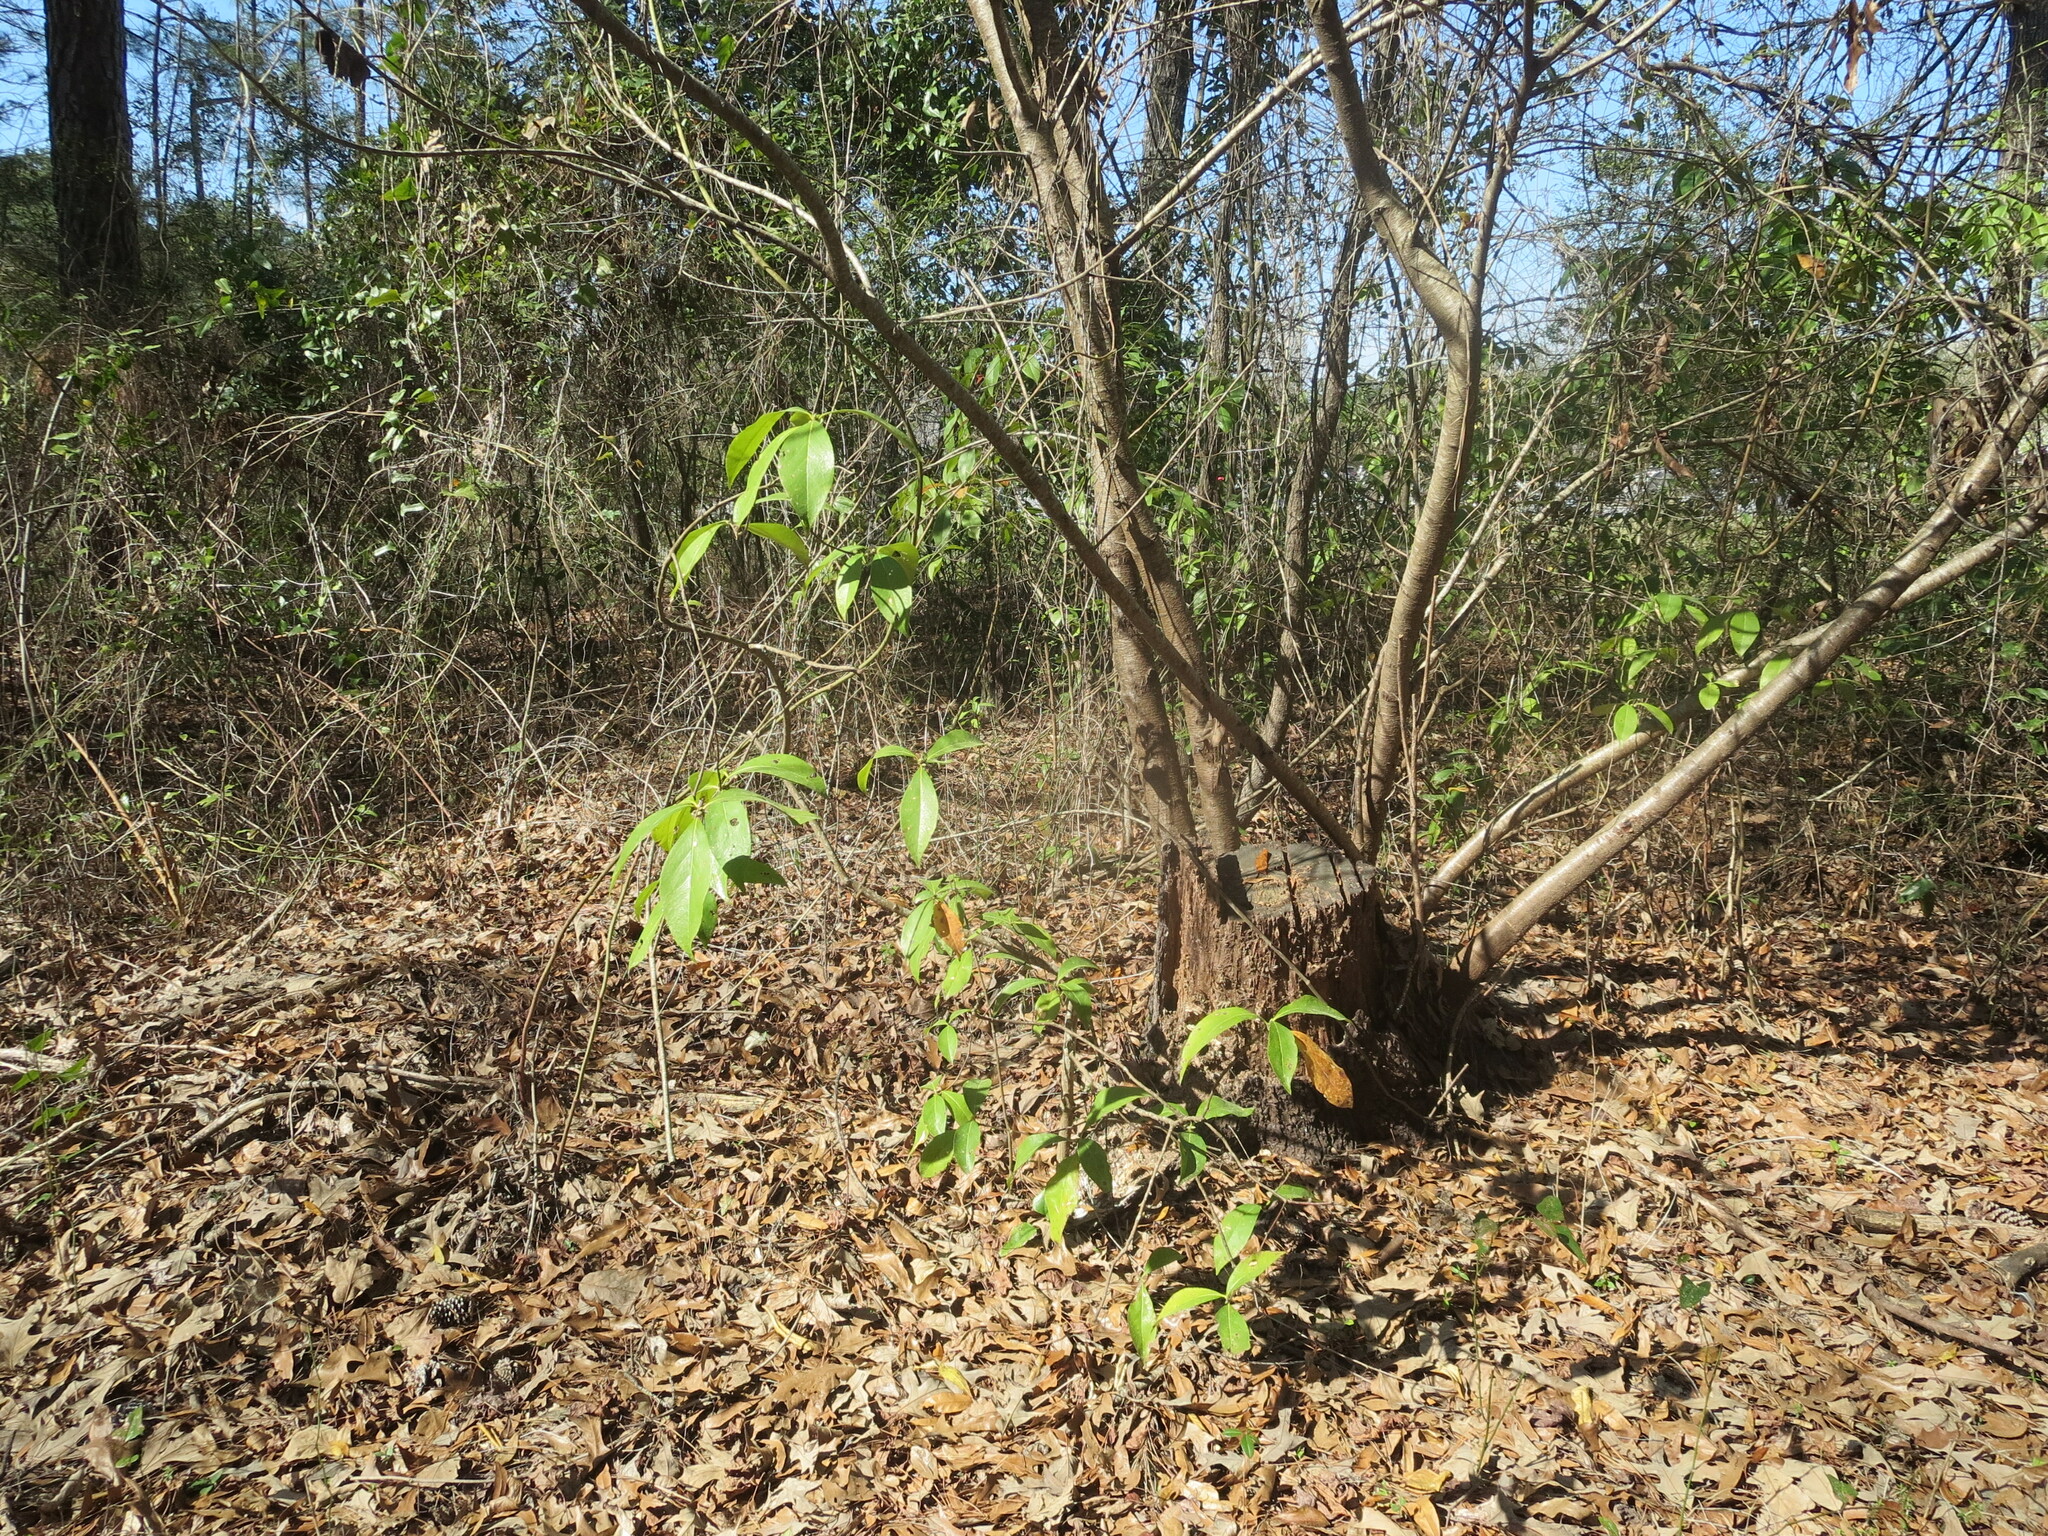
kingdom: Plantae
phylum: Tracheophyta
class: Magnoliopsida
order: Ericales
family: Symplocaceae
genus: Symplocos
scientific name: Symplocos tinctoria
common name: Horse-sugar
